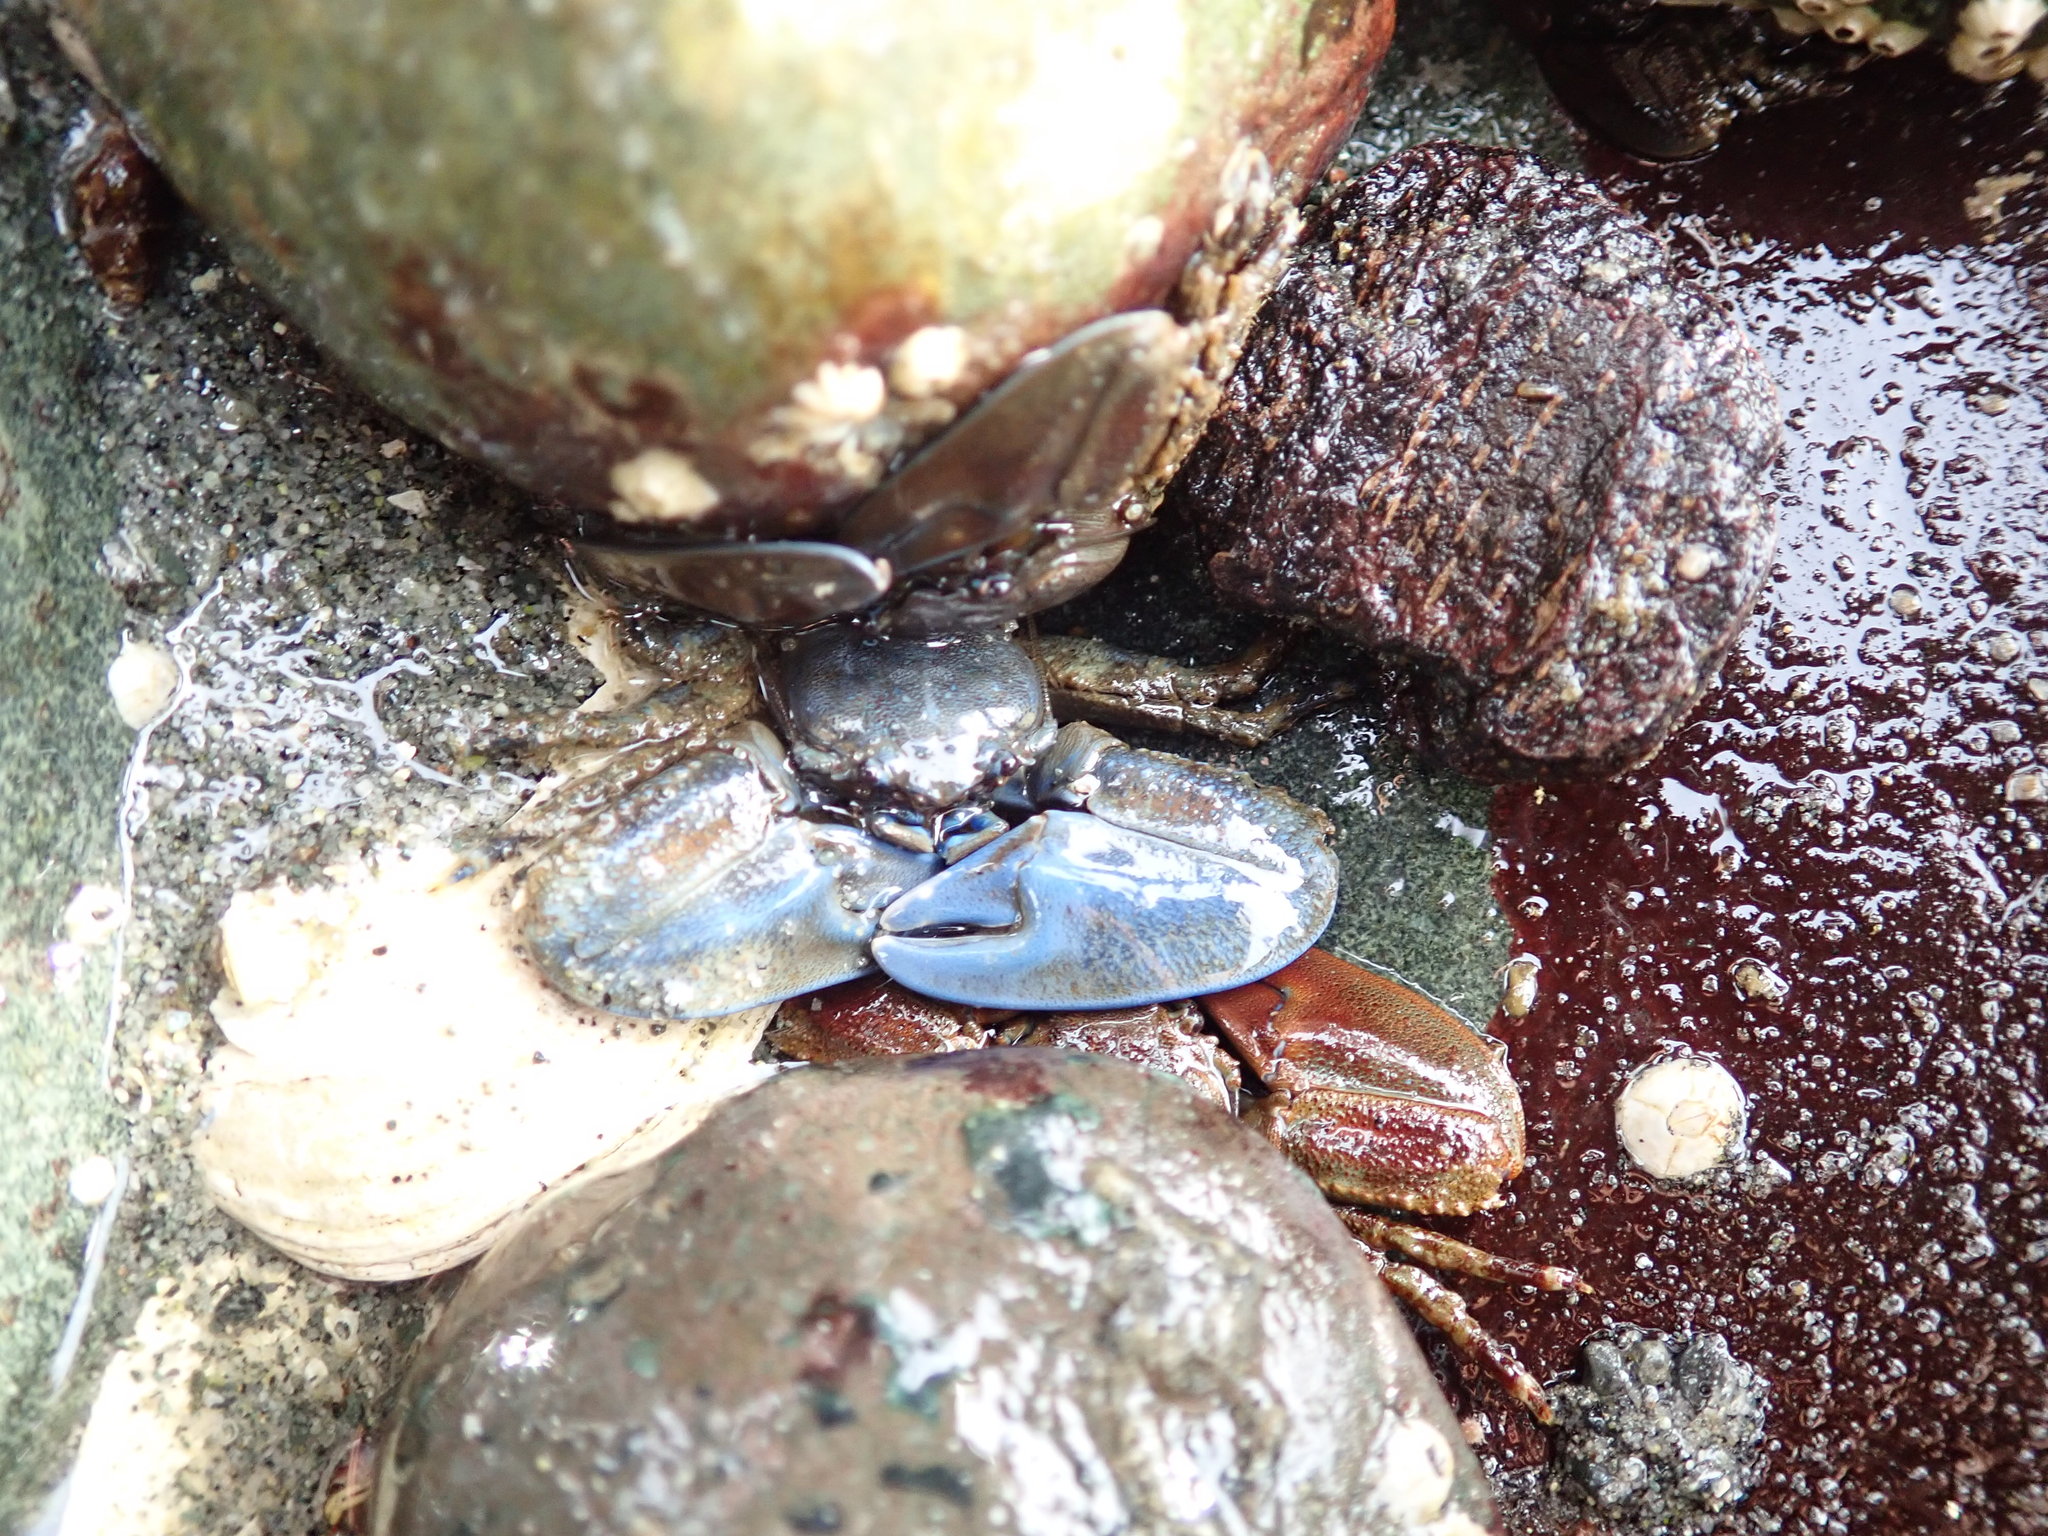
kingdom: Animalia
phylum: Arthropoda
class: Malacostraca
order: Decapoda
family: Porcellanidae
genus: Petrolisthes
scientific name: Petrolisthes eriomerus
